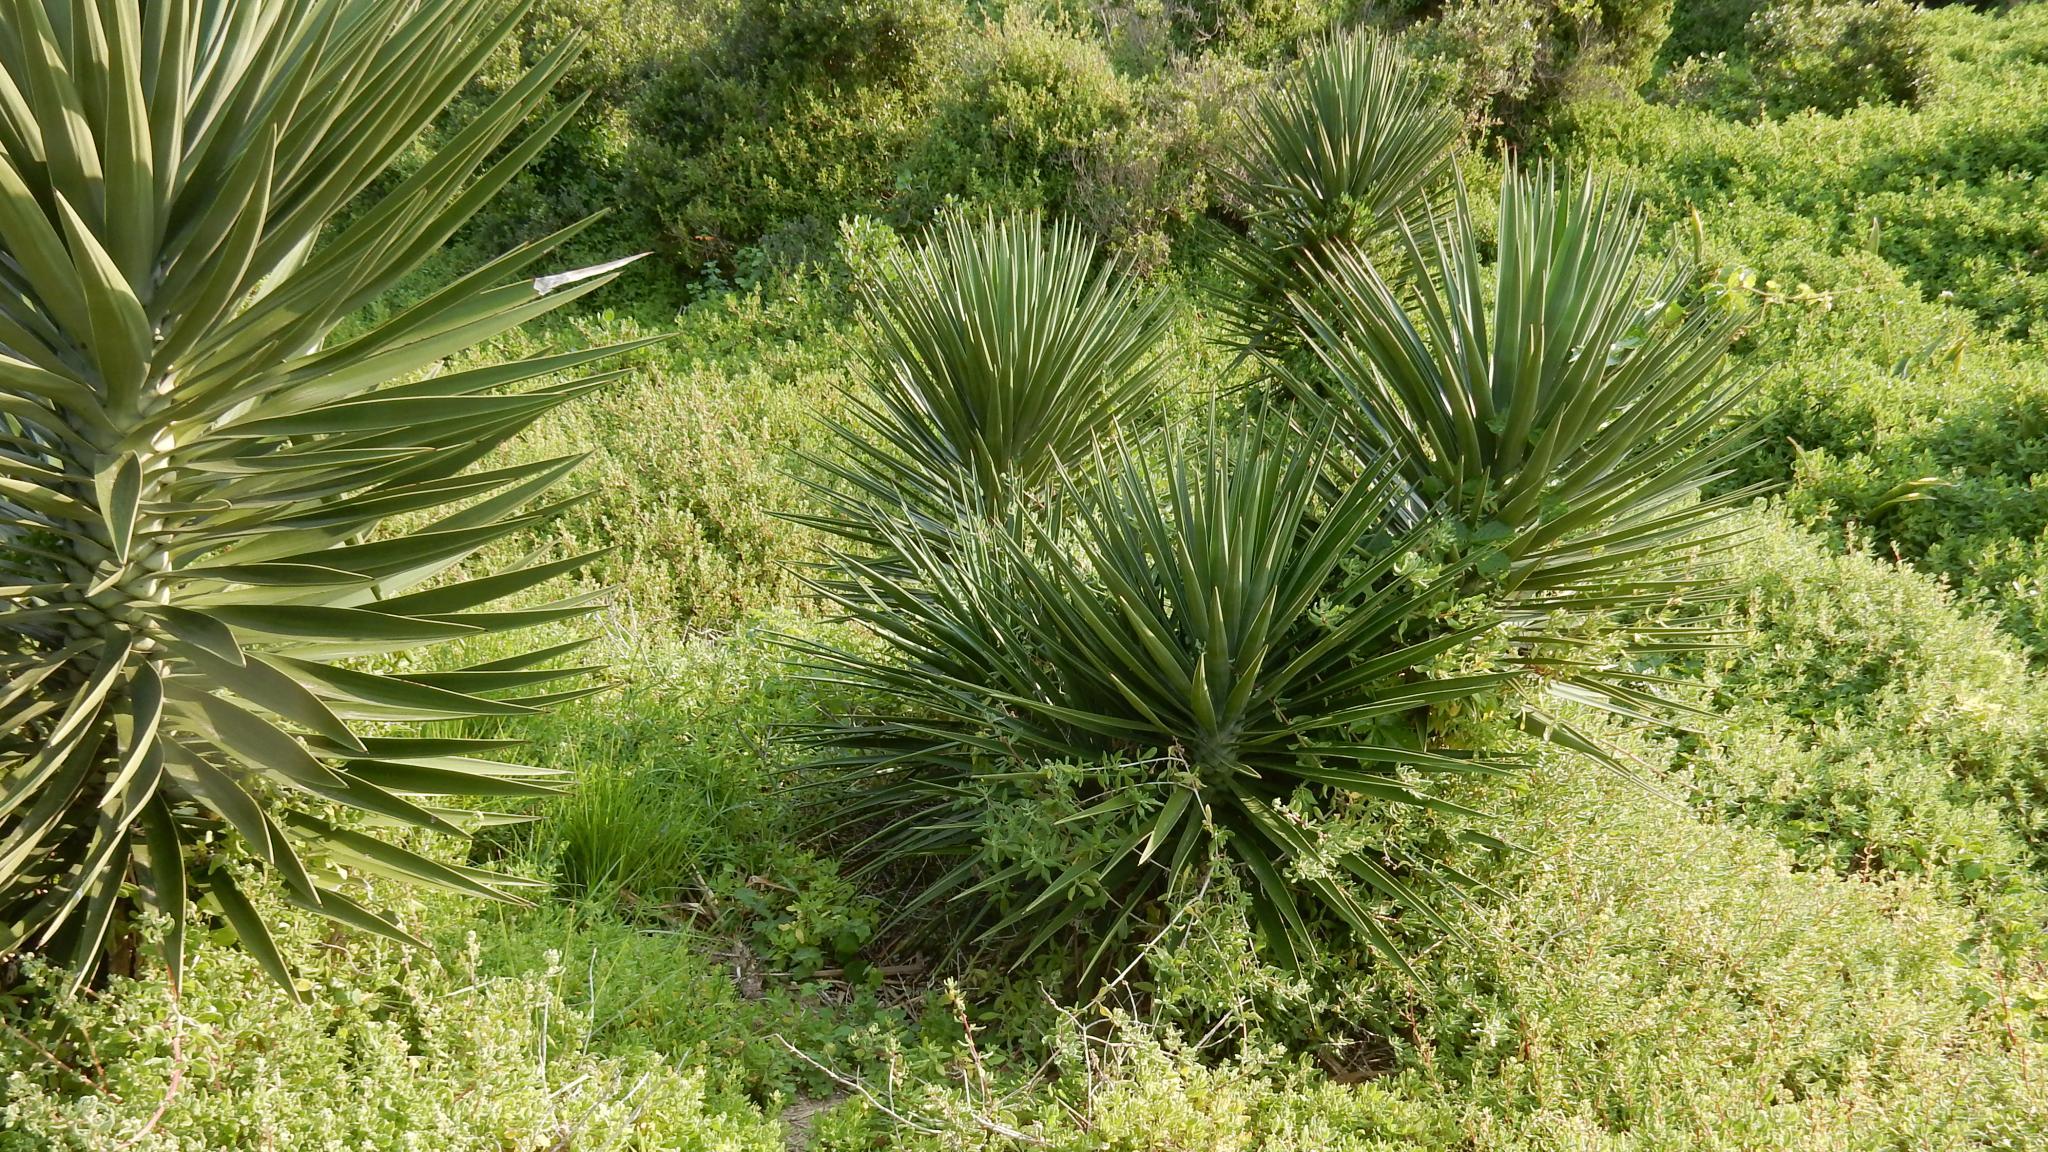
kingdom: Plantae
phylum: Tracheophyta
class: Liliopsida
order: Asparagales
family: Asparagaceae
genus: Yucca
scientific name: Yucca aloifolia
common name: Aloe yucca
